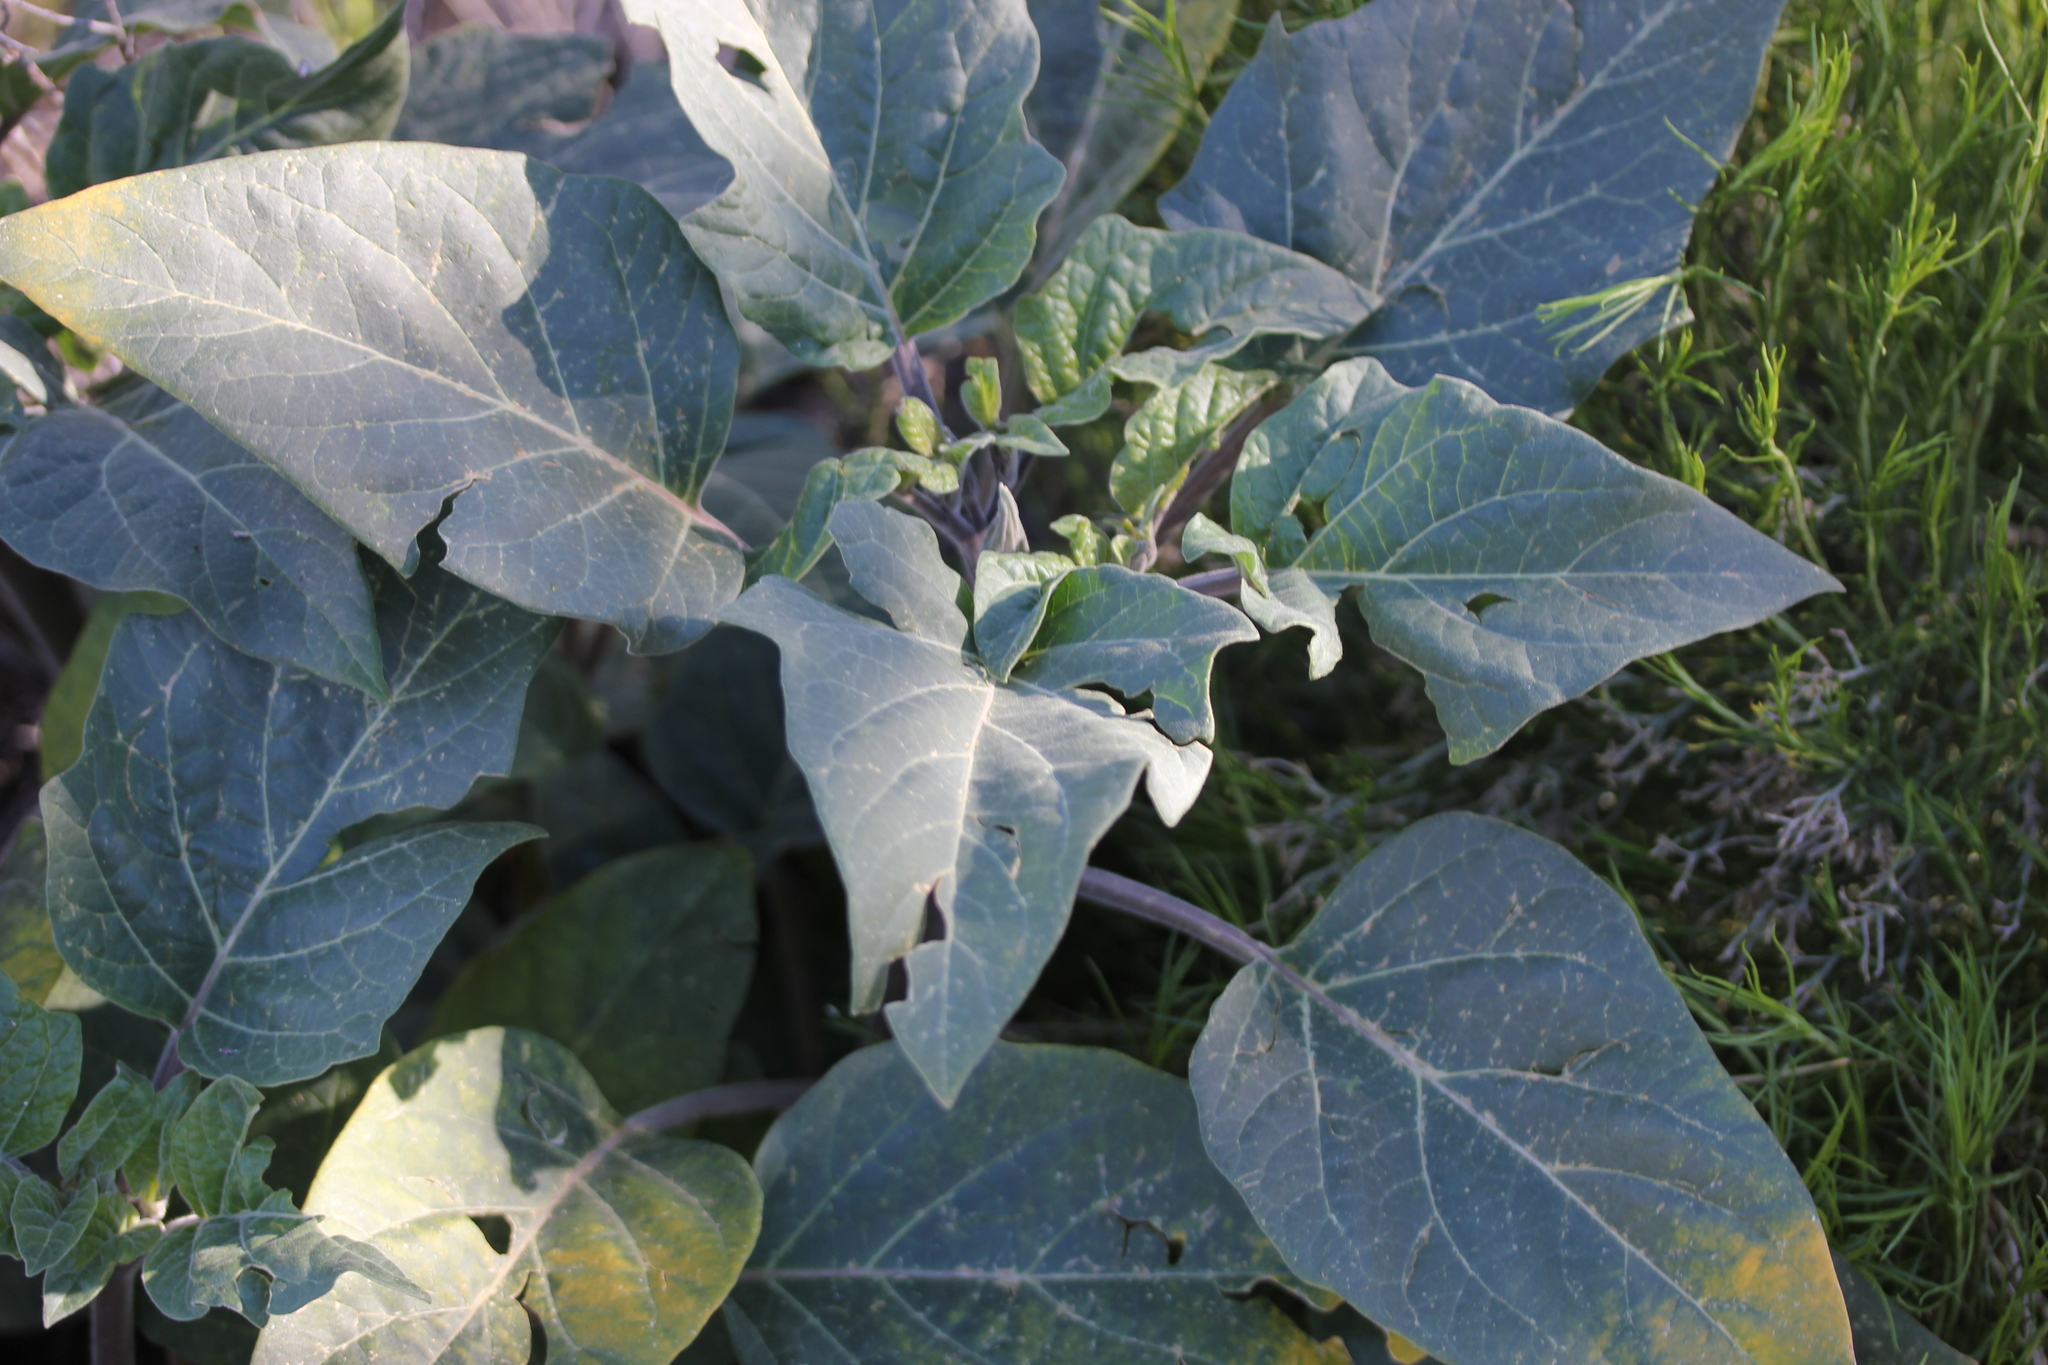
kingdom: Plantae
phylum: Tracheophyta
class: Magnoliopsida
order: Solanales
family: Solanaceae
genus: Datura
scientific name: Datura wrightii
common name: Sacred thorn-apple
